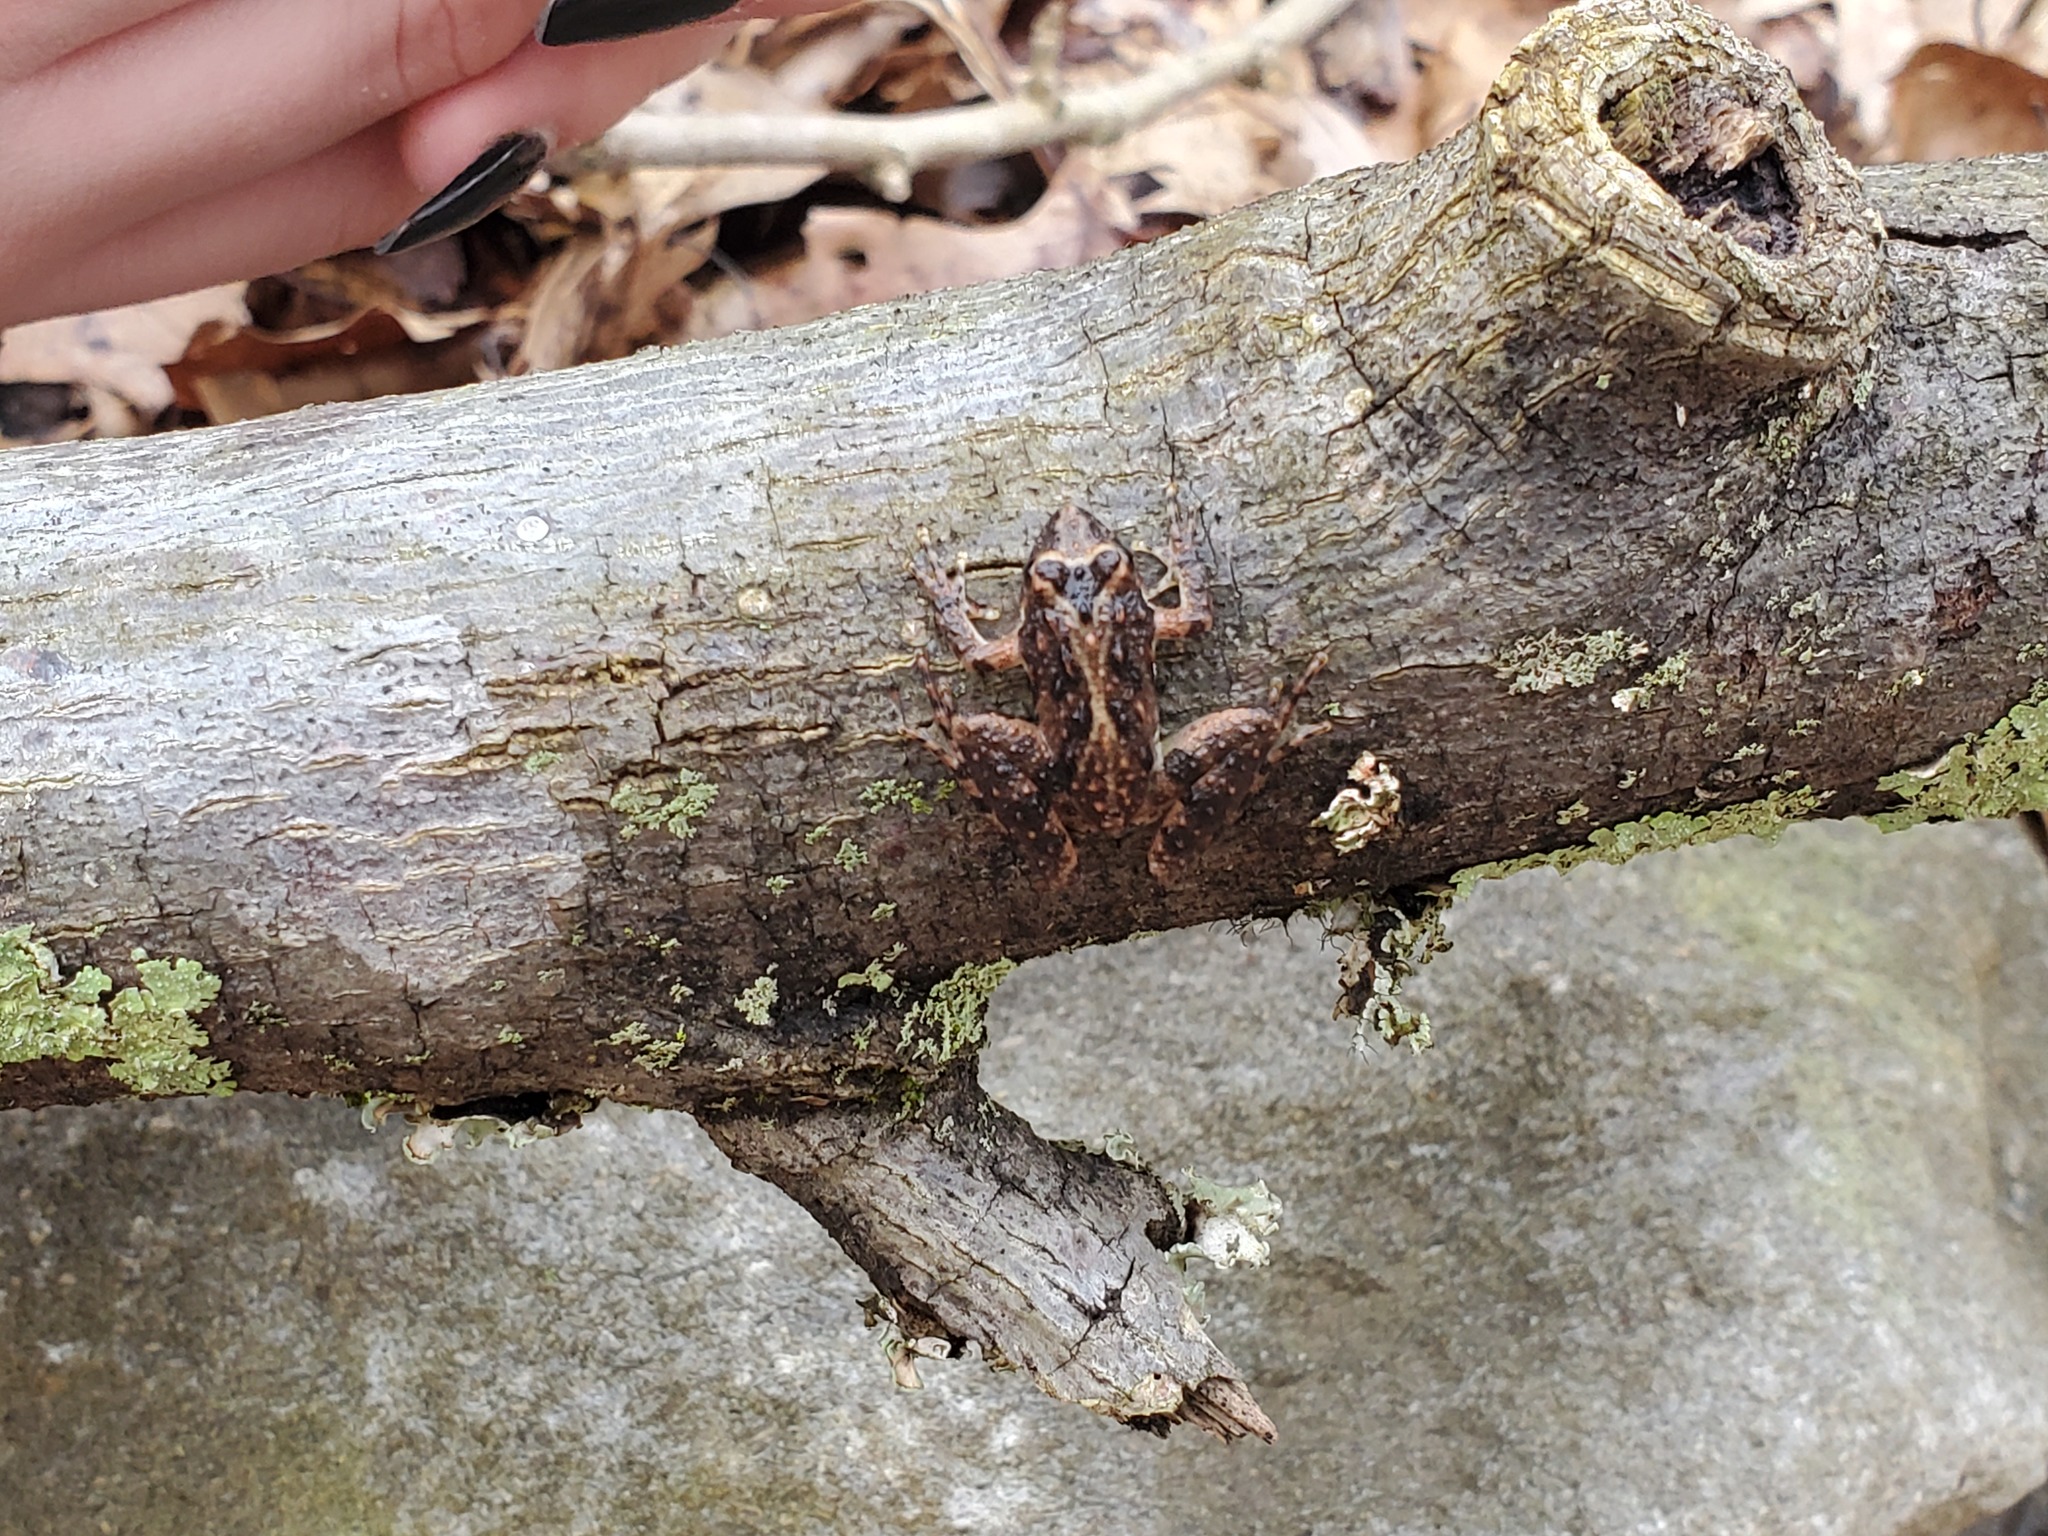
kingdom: Animalia
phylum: Chordata
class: Amphibia
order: Anura
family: Hylidae
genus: Acris
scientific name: Acris crepitans
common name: Northern cricket frog
